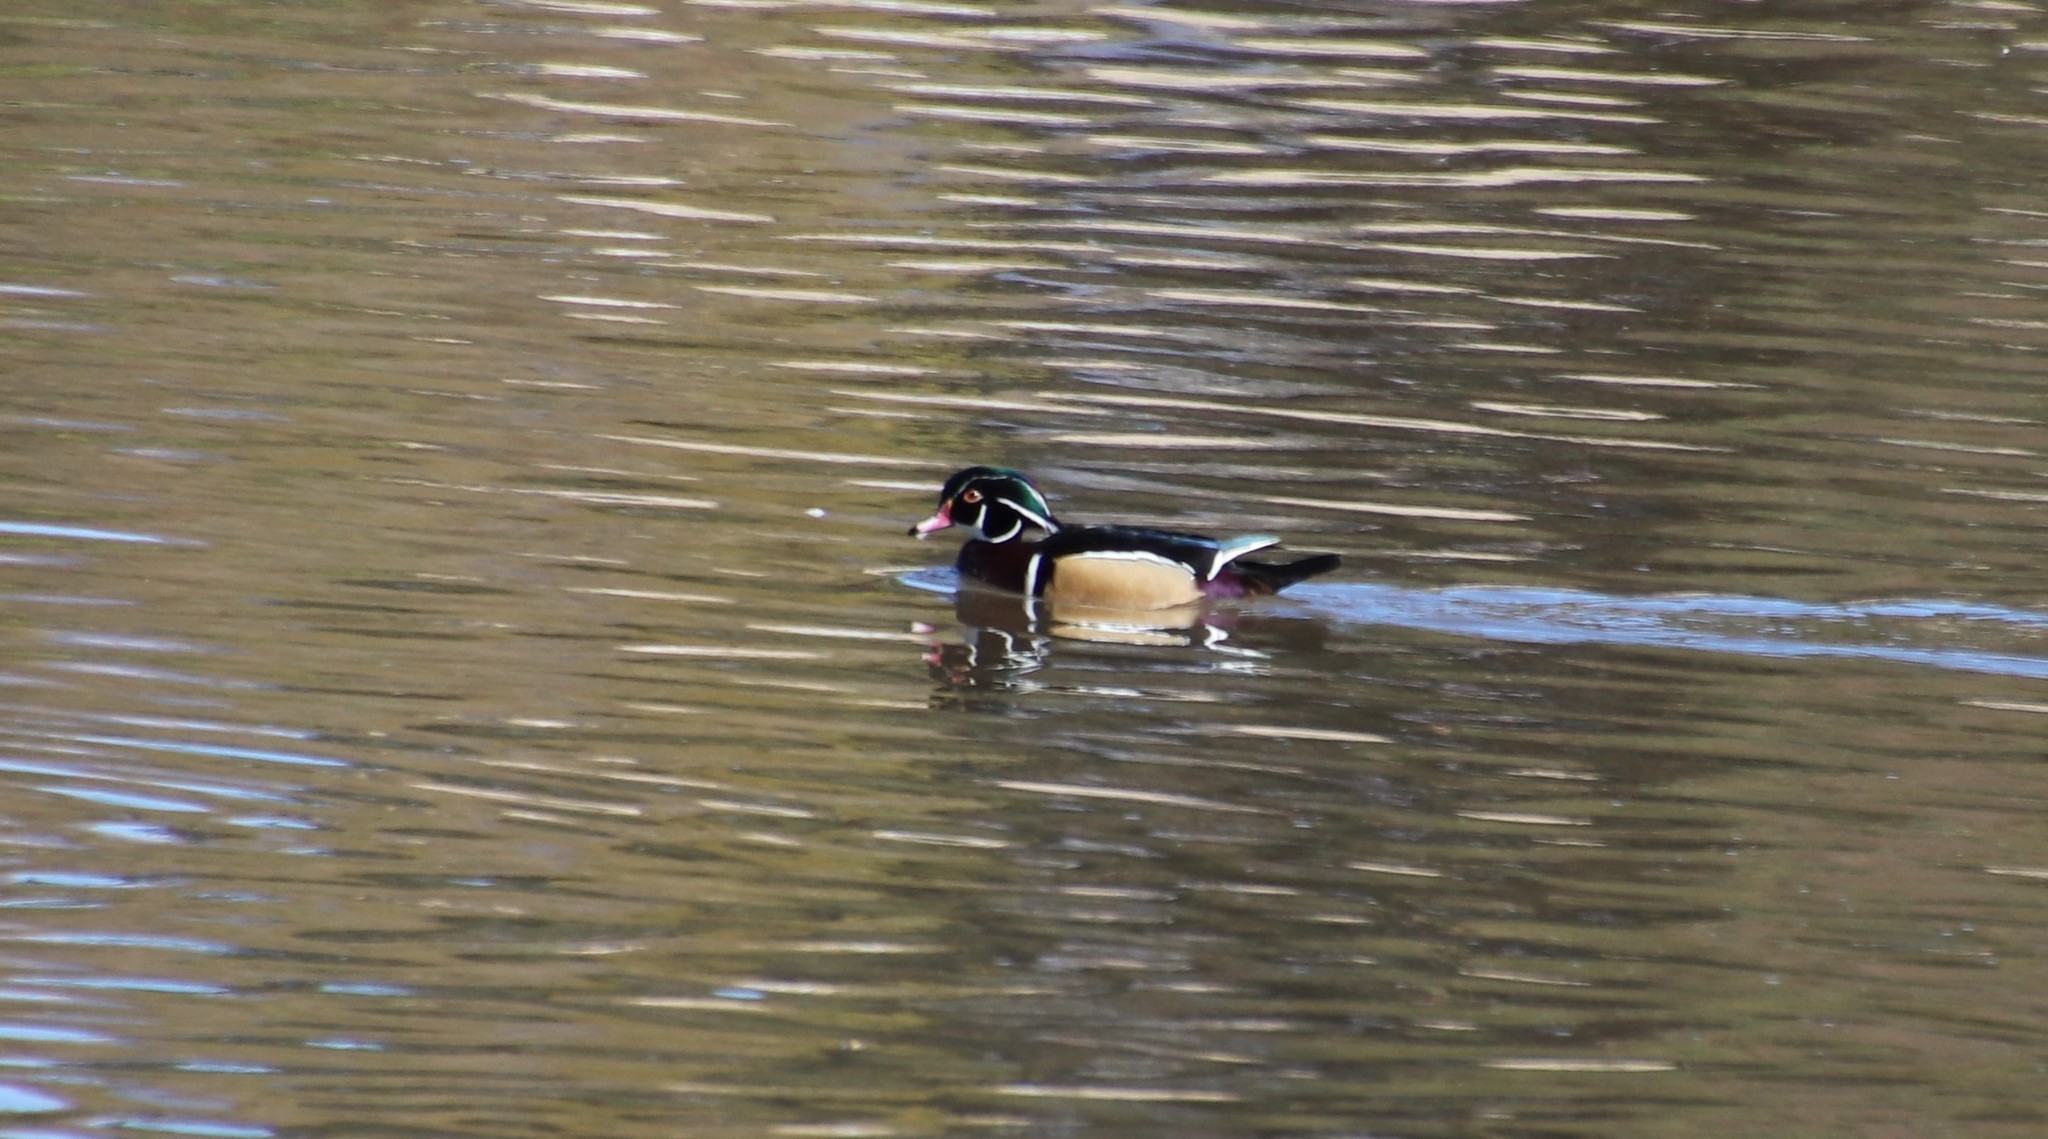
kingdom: Animalia
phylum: Chordata
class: Aves
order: Anseriformes
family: Anatidae
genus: Aix
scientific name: Aix sponsa
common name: Wood duck
